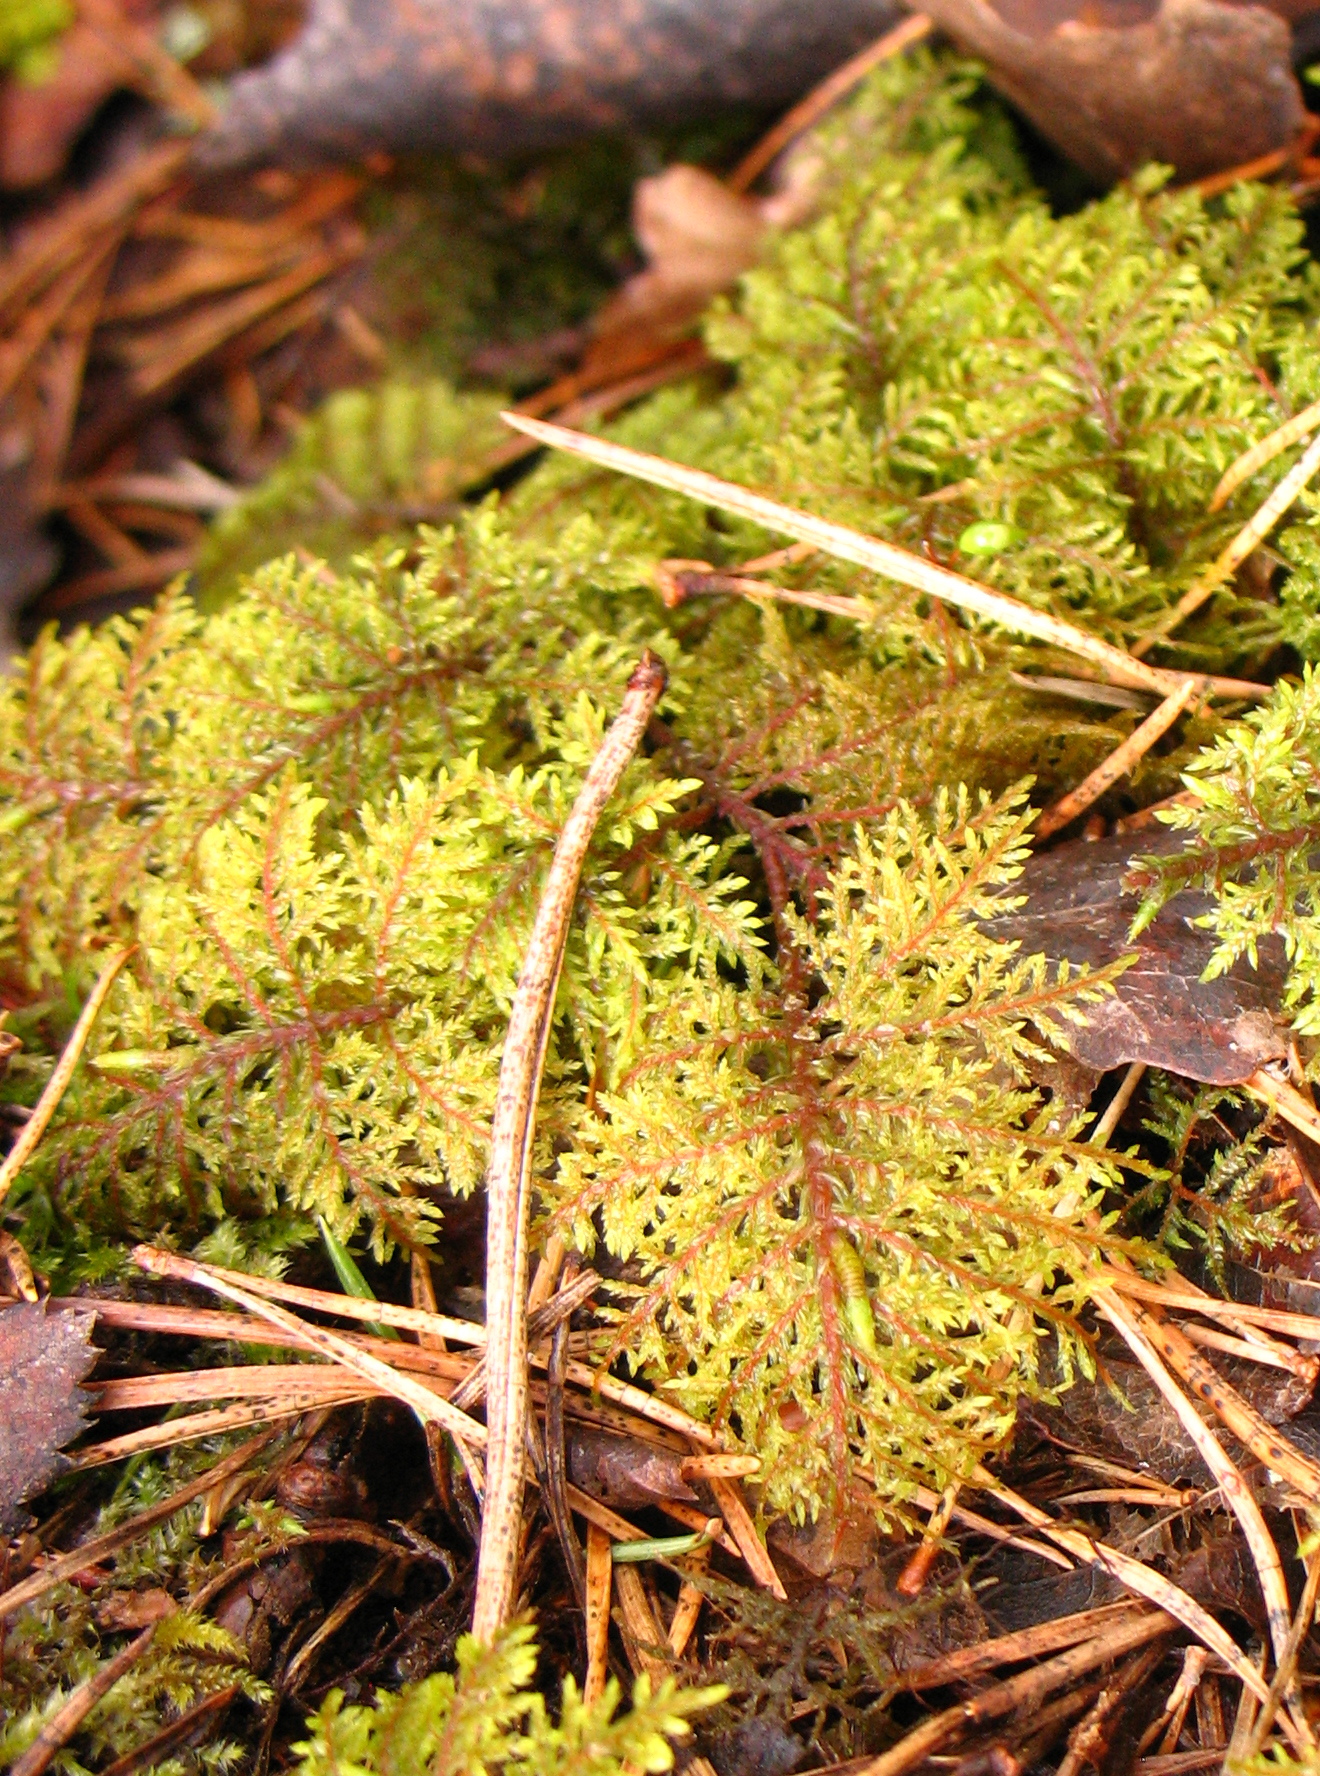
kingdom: Plantae
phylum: Bryophyta
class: Bryopsida
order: Hypnales
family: Hylocomiaceae
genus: Hylocomium
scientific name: Hylocomium splendens
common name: Stairstep moss
